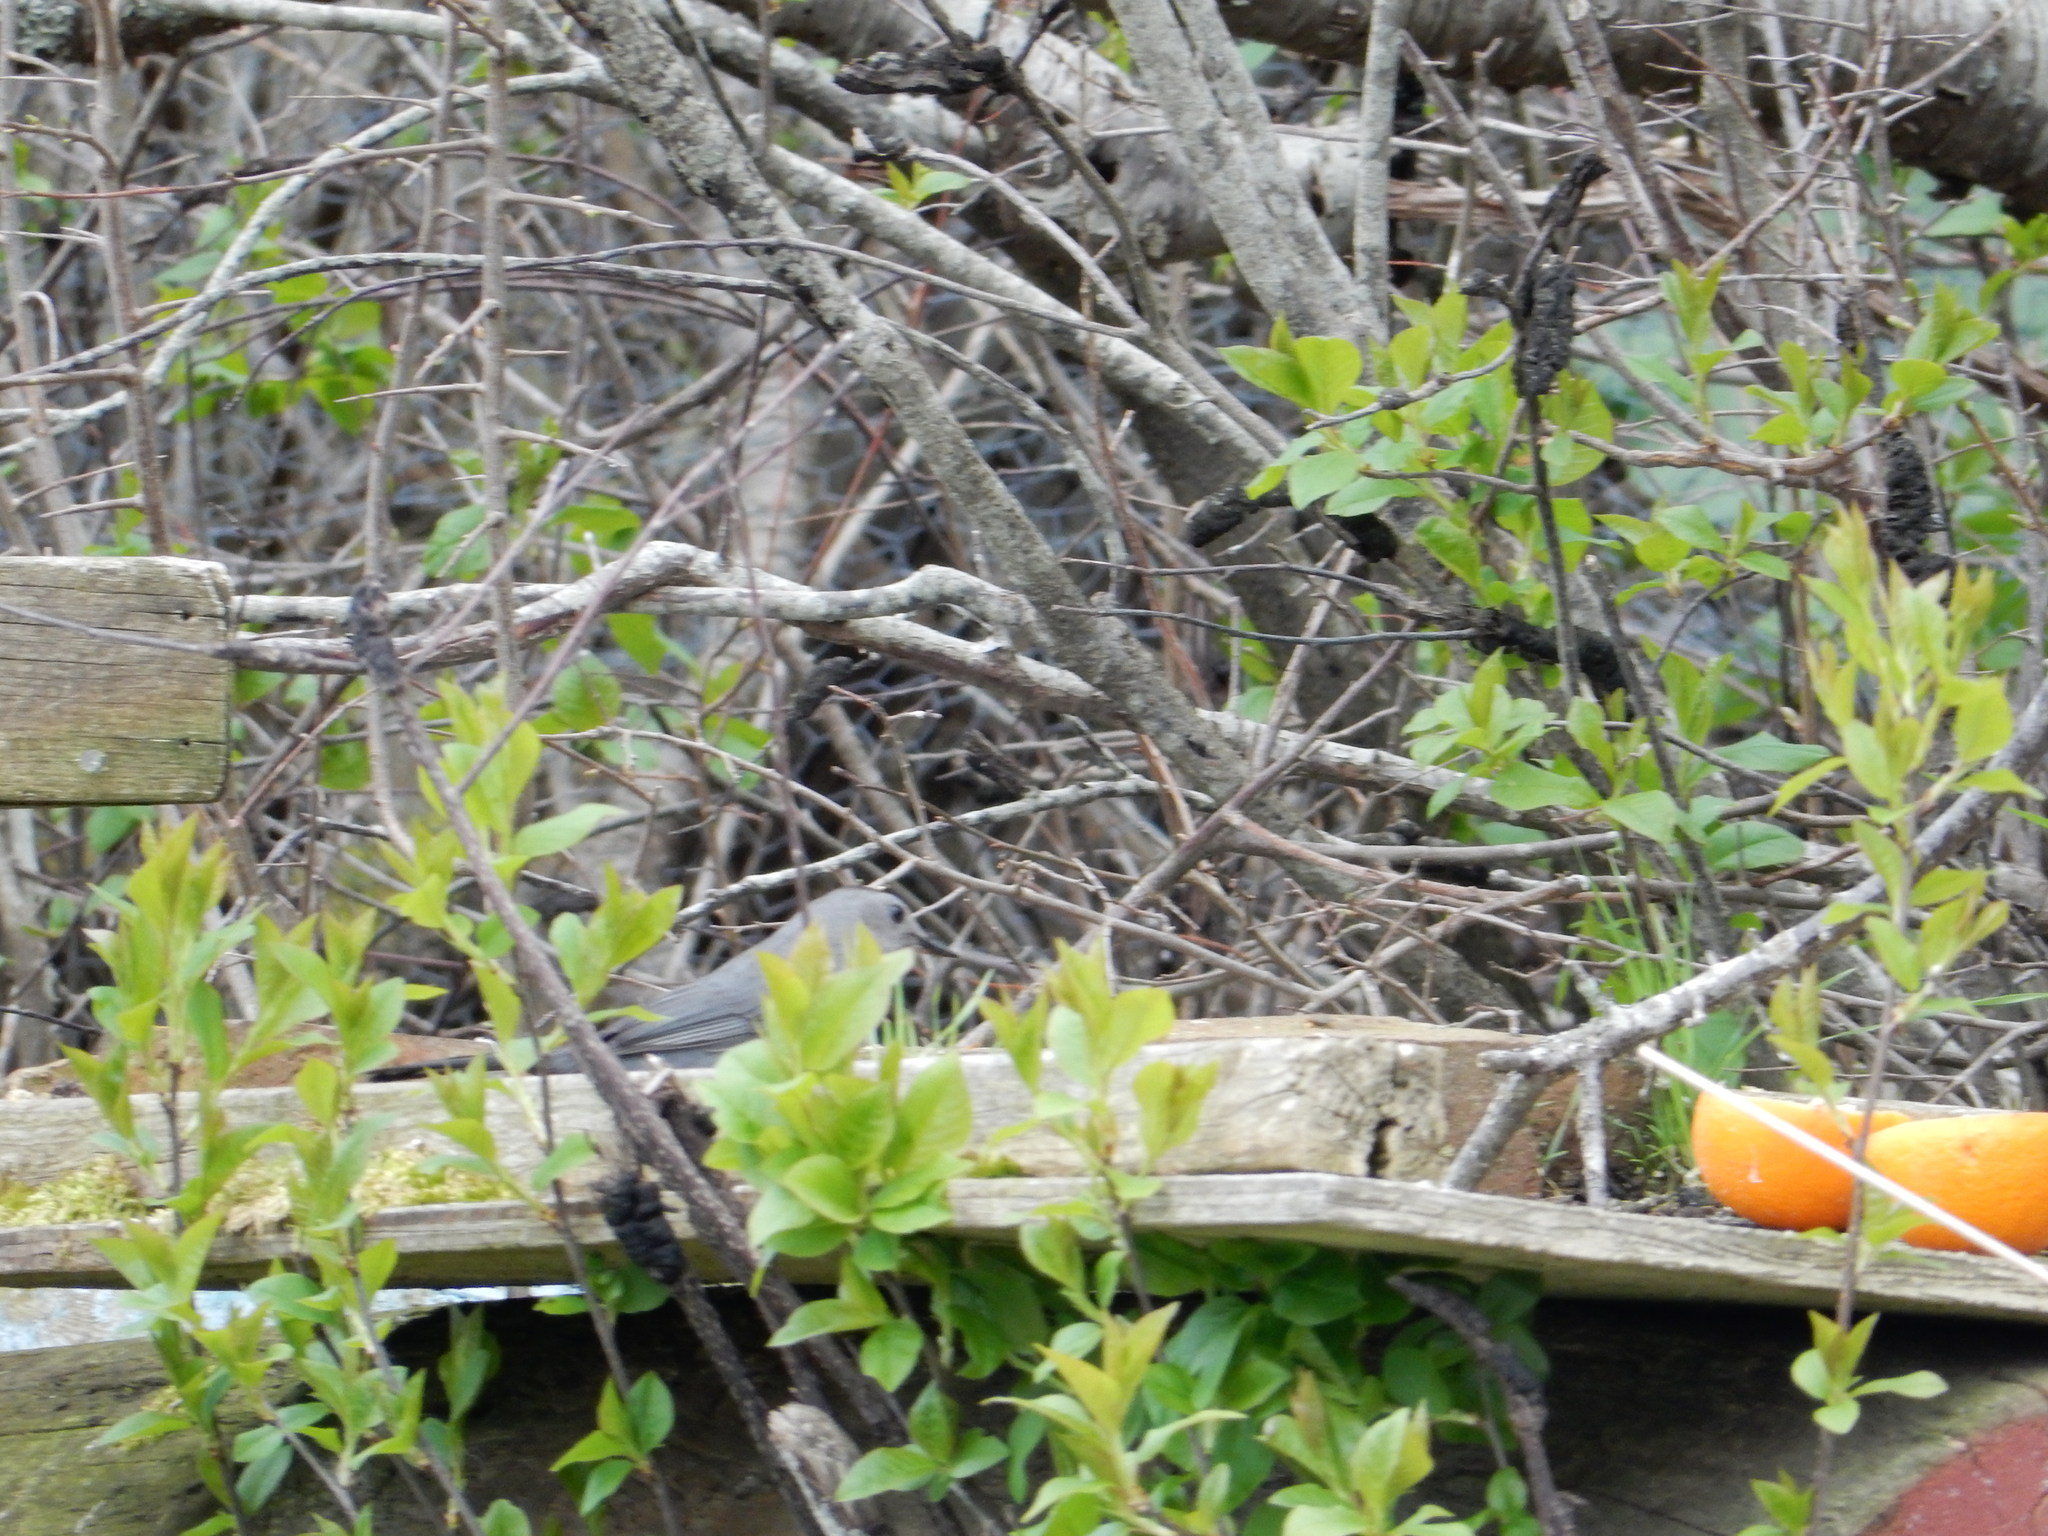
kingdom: Animalia
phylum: Chordata
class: Aves
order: Passeriformes
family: Mimidae
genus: Dumetella
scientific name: Dumetella carolinensis
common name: Gray catbird
